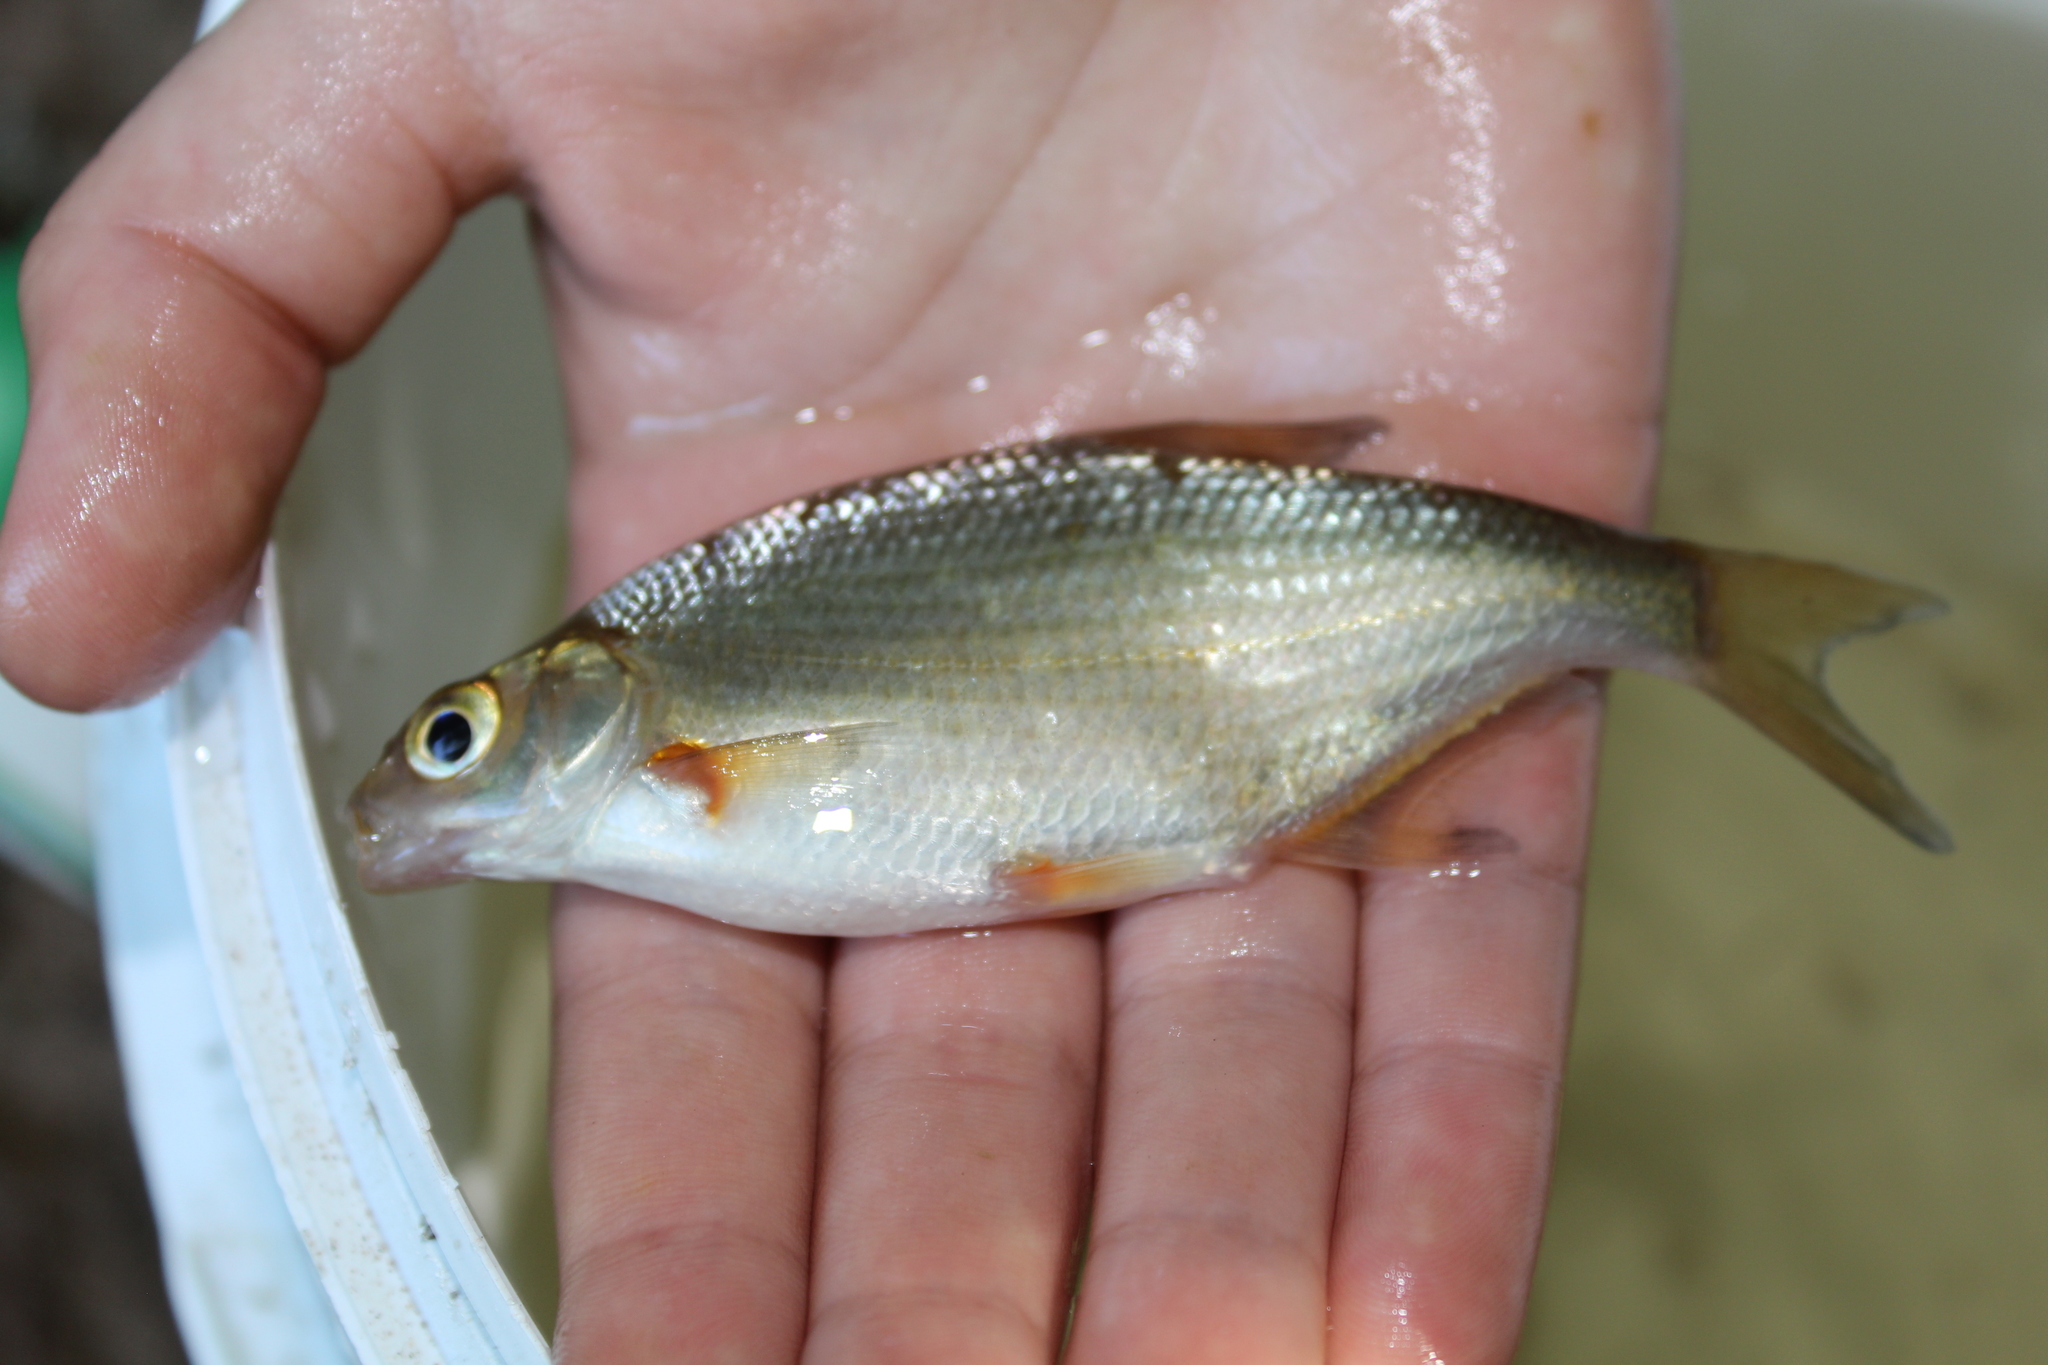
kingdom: Animalia
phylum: Chordata
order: Cypriniformes
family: Cyprinidae
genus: Blicca
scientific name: Blicca bjoerkna
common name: White bream
